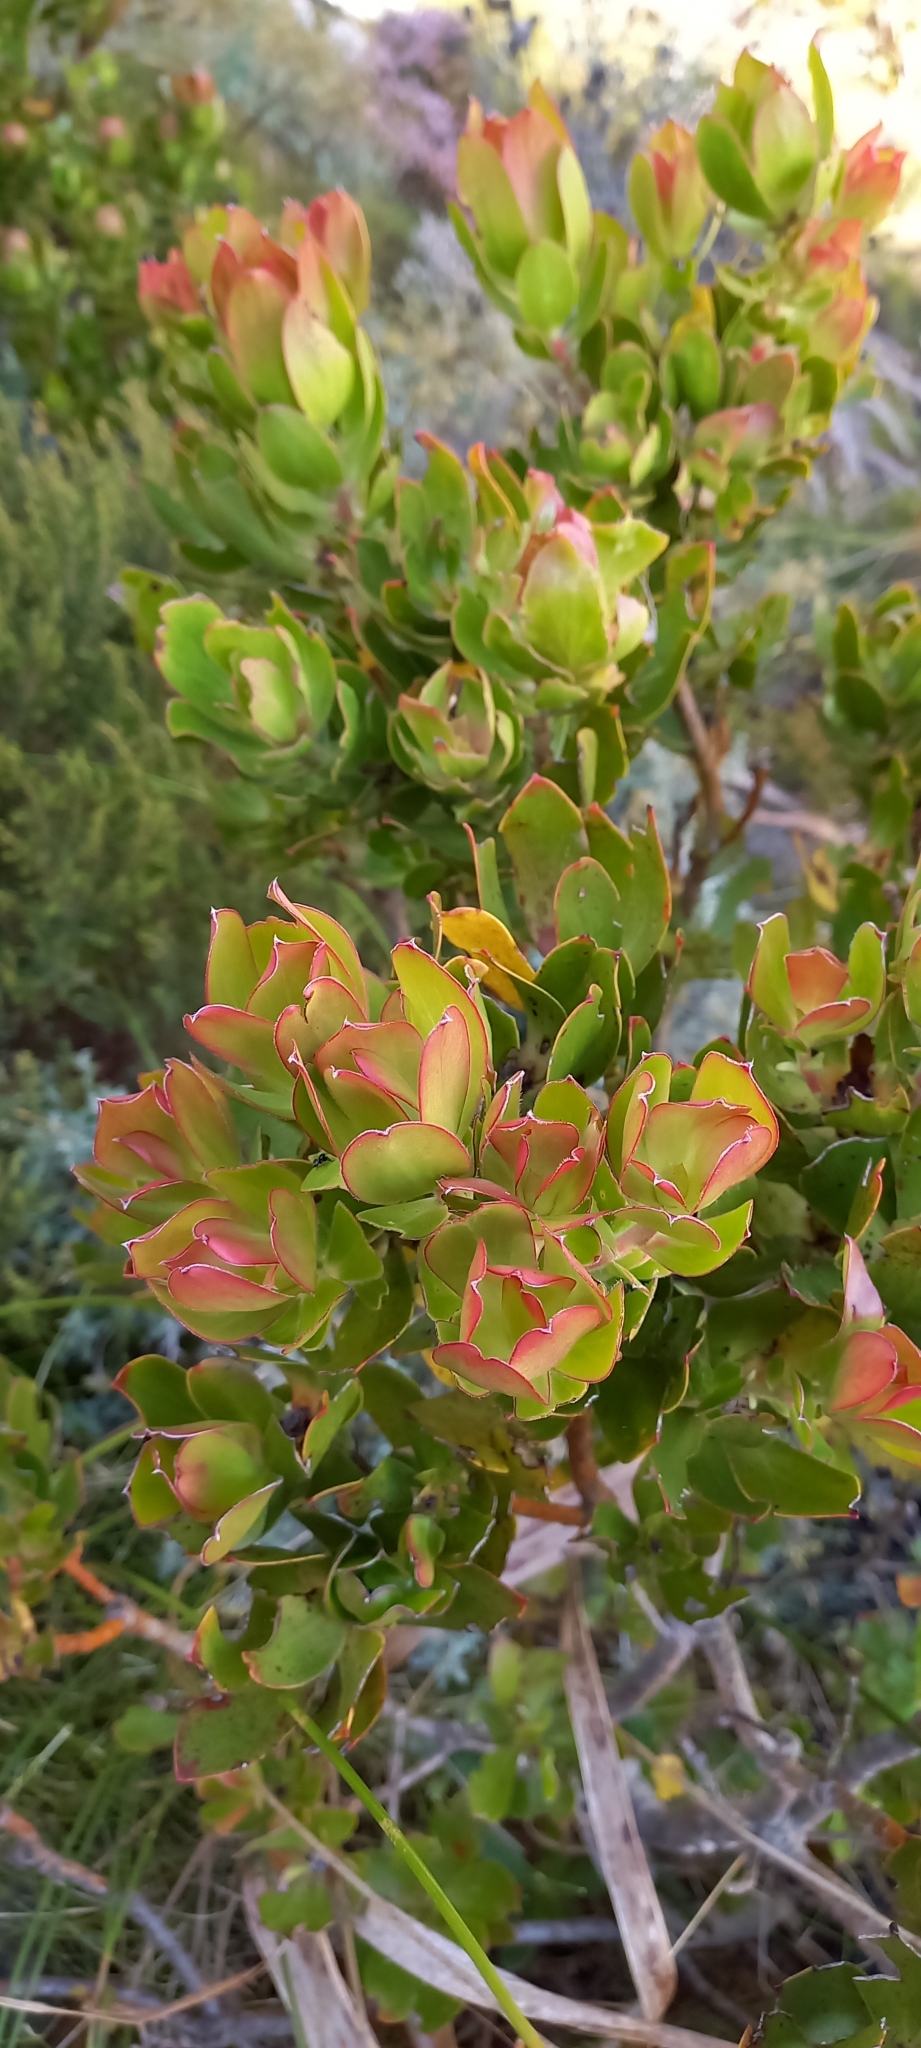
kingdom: Plantae
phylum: Tracheophyta
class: Magnoliopsida
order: Proteales
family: Proteaceae
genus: Leucadendron
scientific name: Leucadendron strobilinum
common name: Mountain rose
